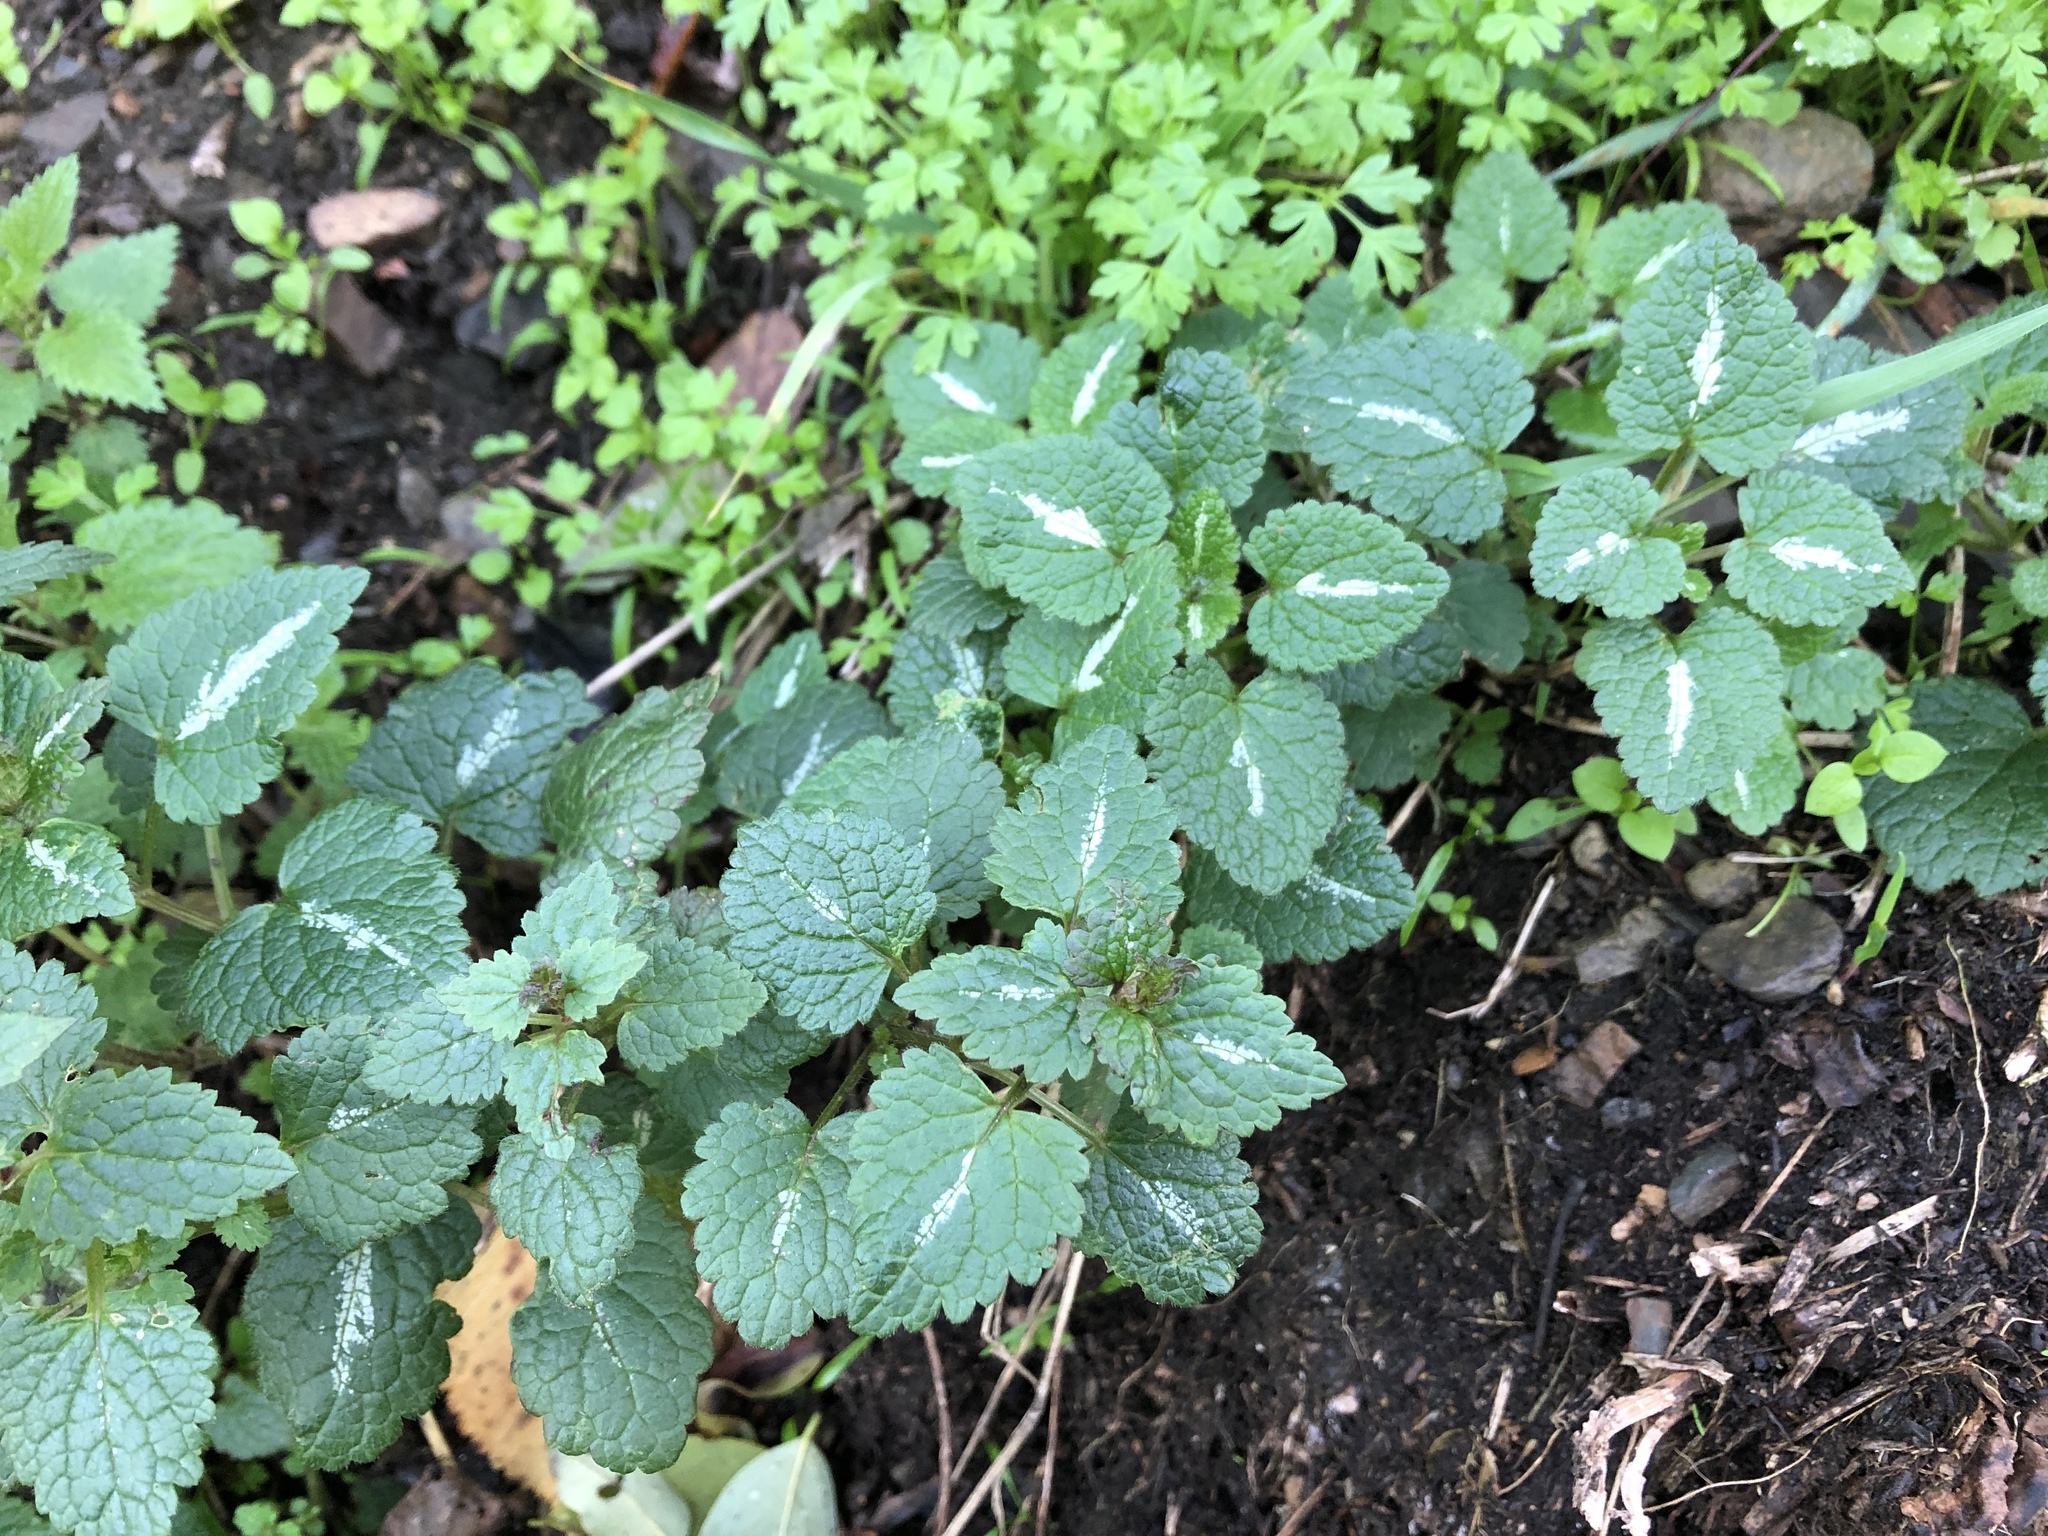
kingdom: Plantae
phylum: Tracheophyta
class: Magnoliopsida
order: Lamiales
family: Lamiaceae
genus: Lamium
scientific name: Lamium maculatum
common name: Spotted dead-nettle
